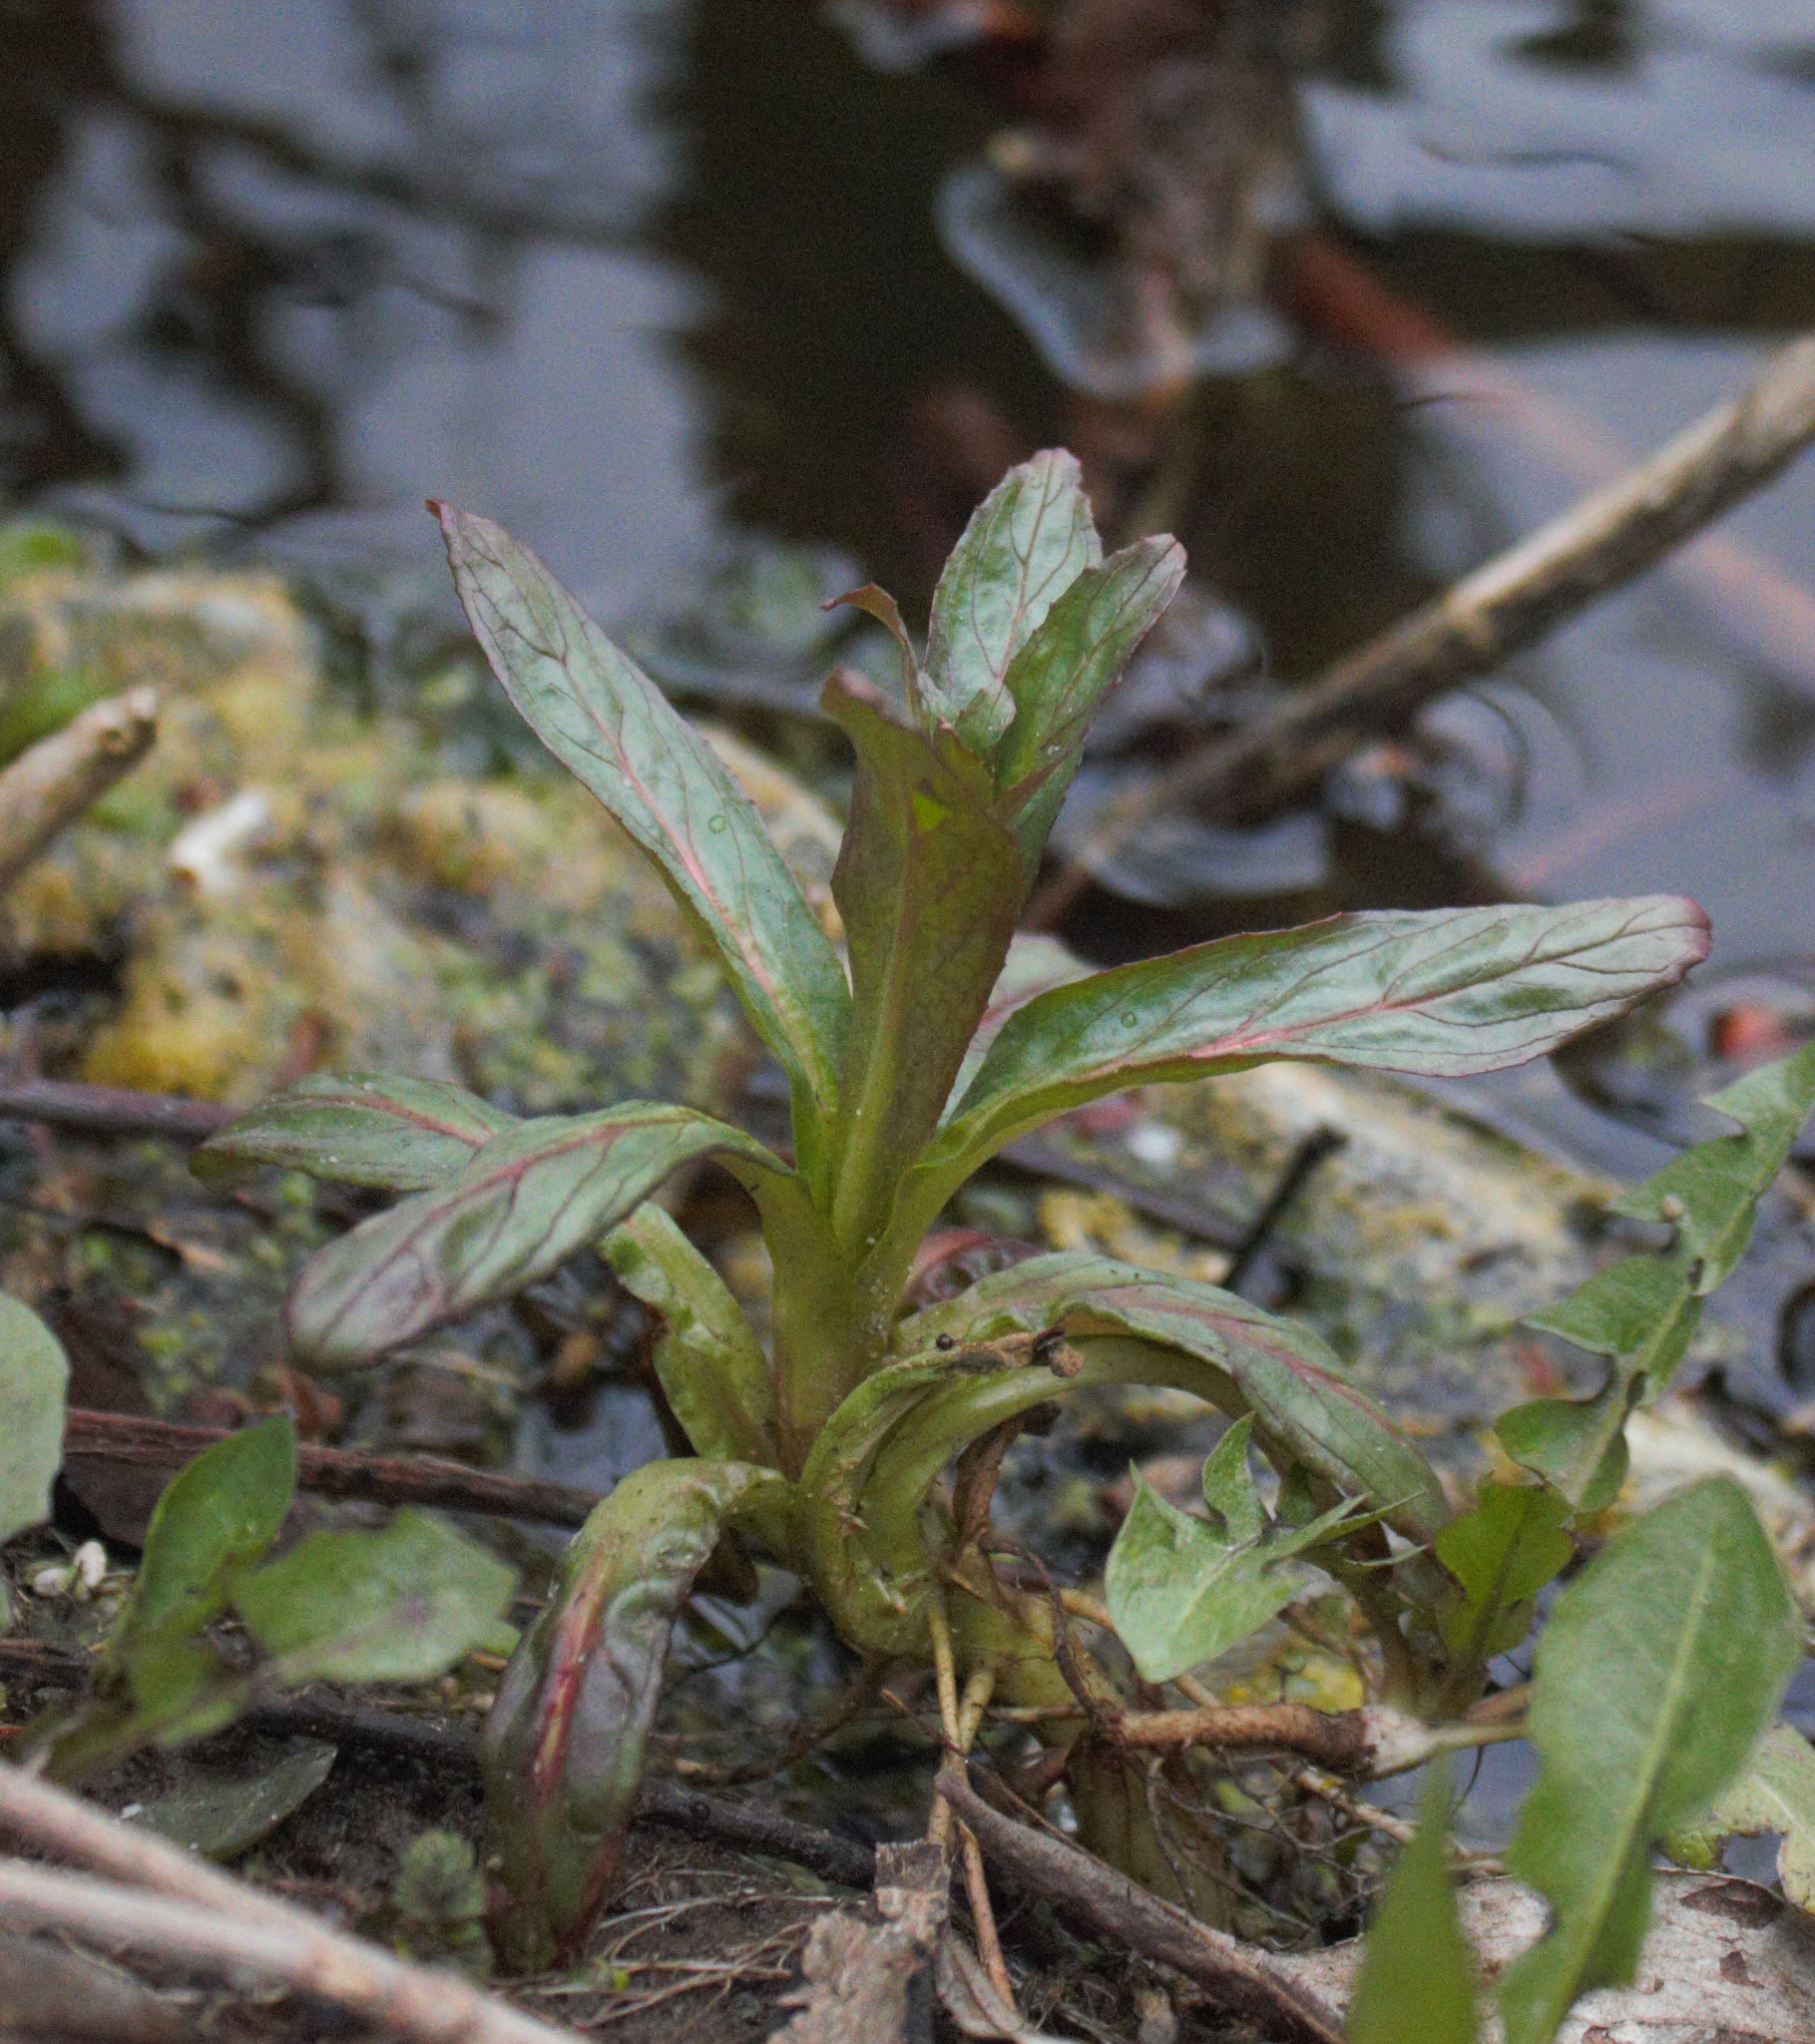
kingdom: Plantae
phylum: Tracheophyta
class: Magnoliopsida
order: Myrtales
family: Onagraceae
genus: Epilobium
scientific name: Epilobium hirsutum
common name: Great willowherb
